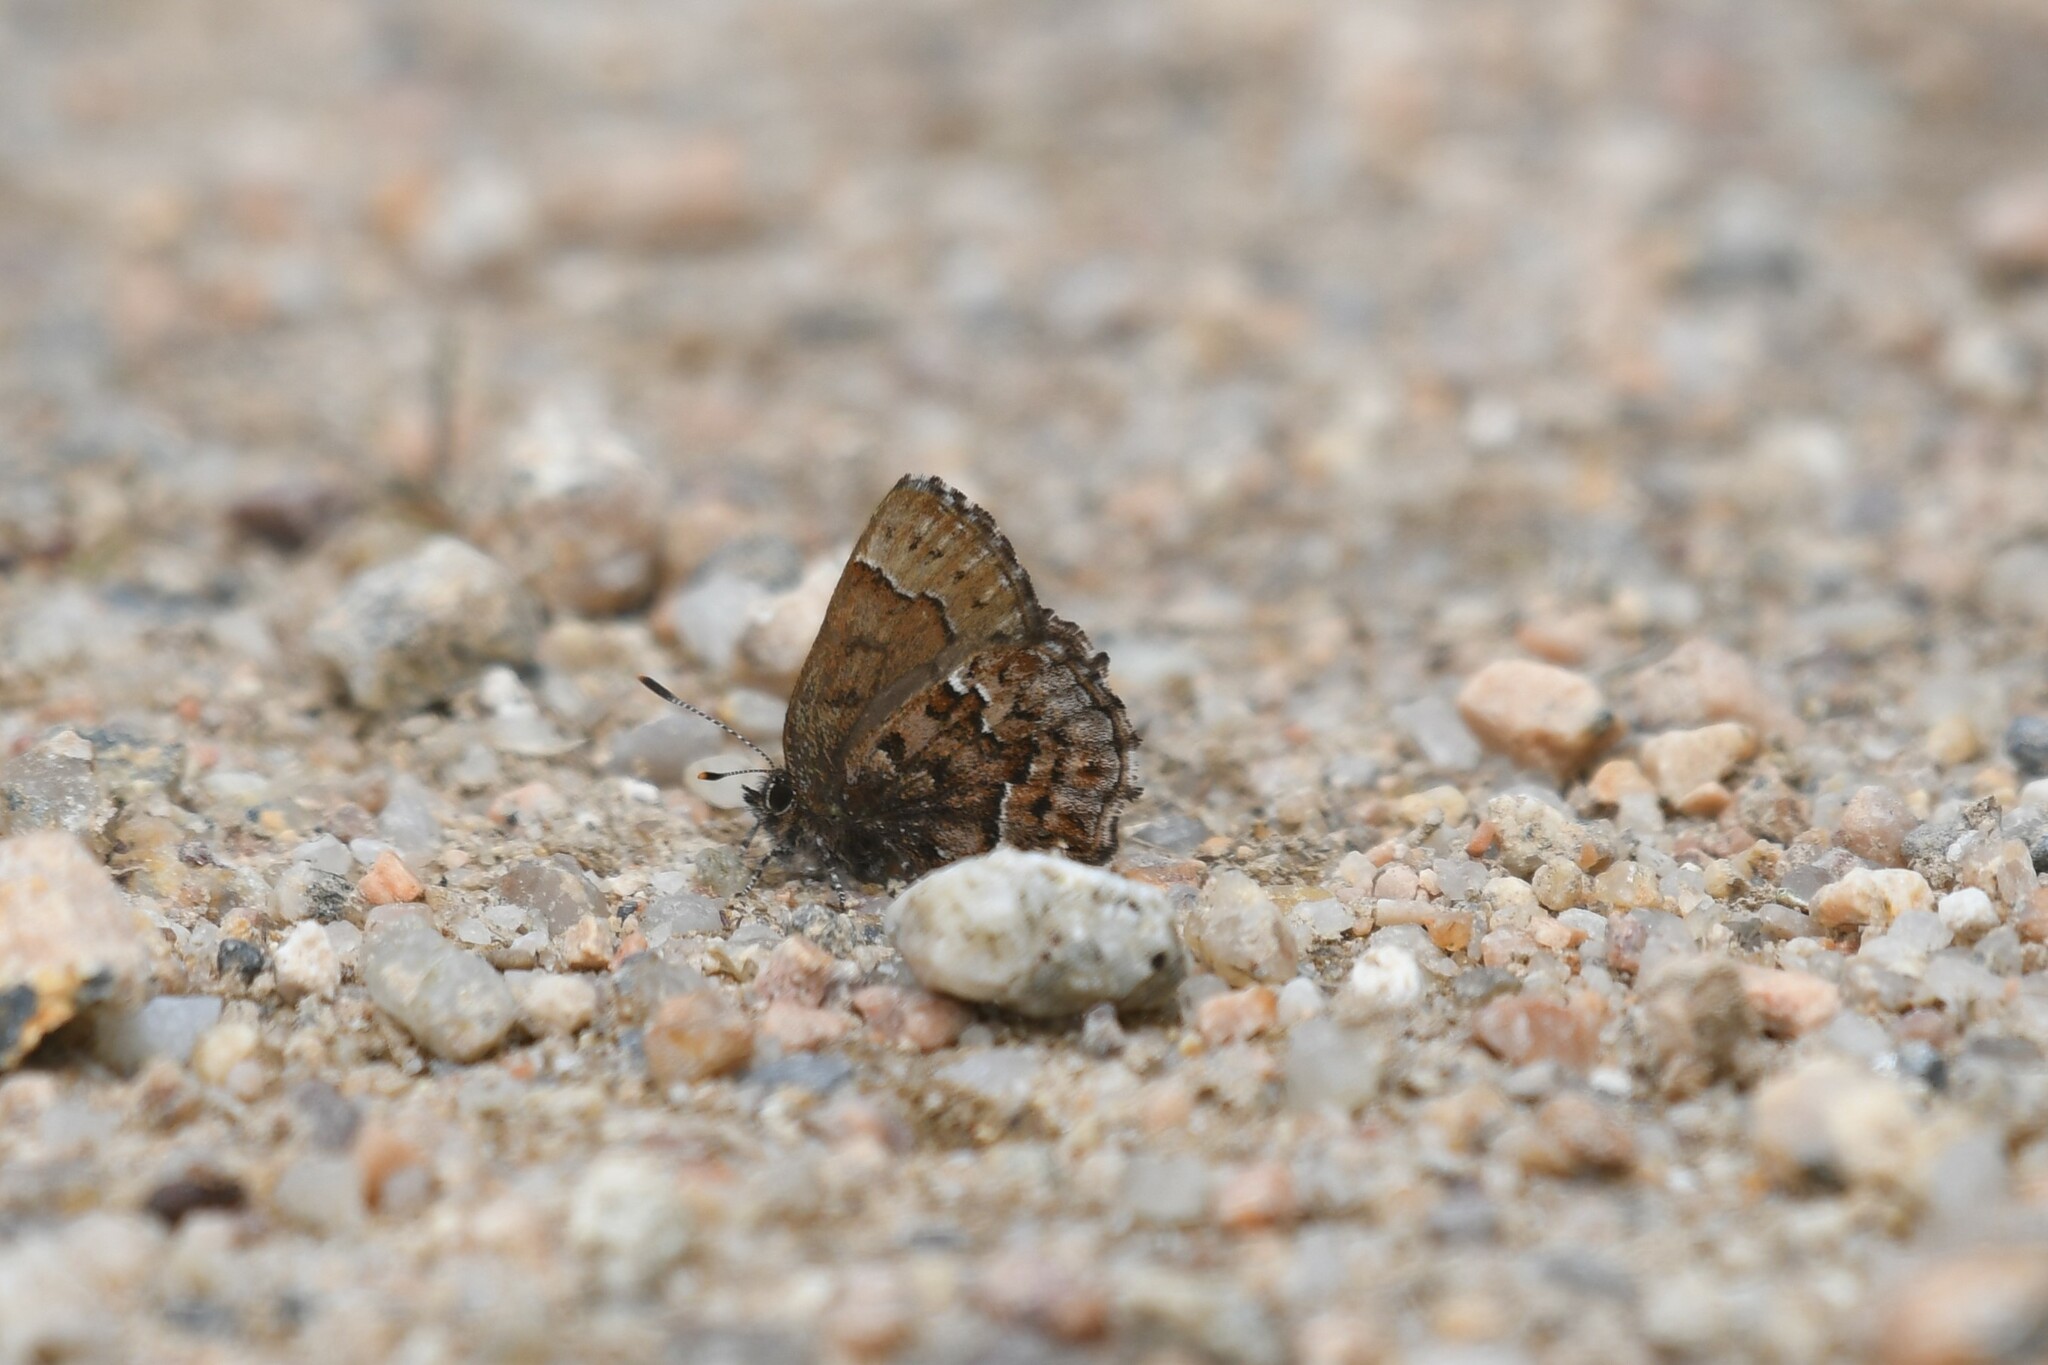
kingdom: Animalia
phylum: Arthropoda
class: Insecta
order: Lepidoptera
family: Lycaenidae
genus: Incisalia
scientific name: Incisalia lanoraieensis
